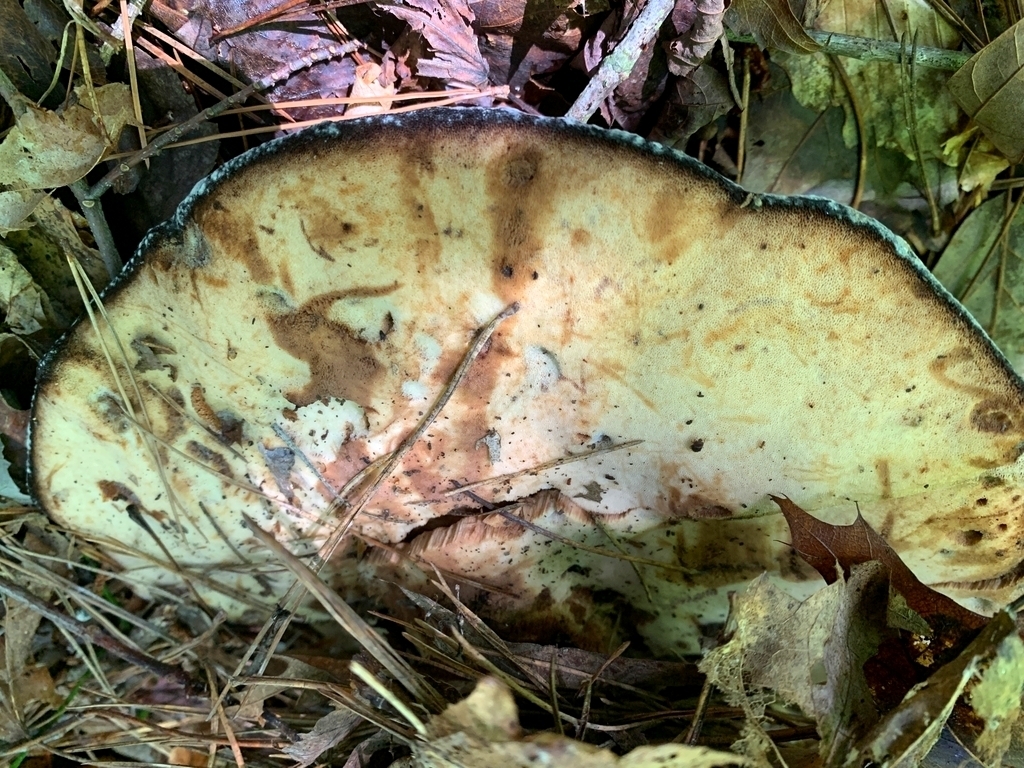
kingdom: Fungi
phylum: Basidiomycota
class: Agaricomycetes
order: Polyporales
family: Laetiporaceae
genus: Berkcurtia
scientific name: Berkcurtia persicina
